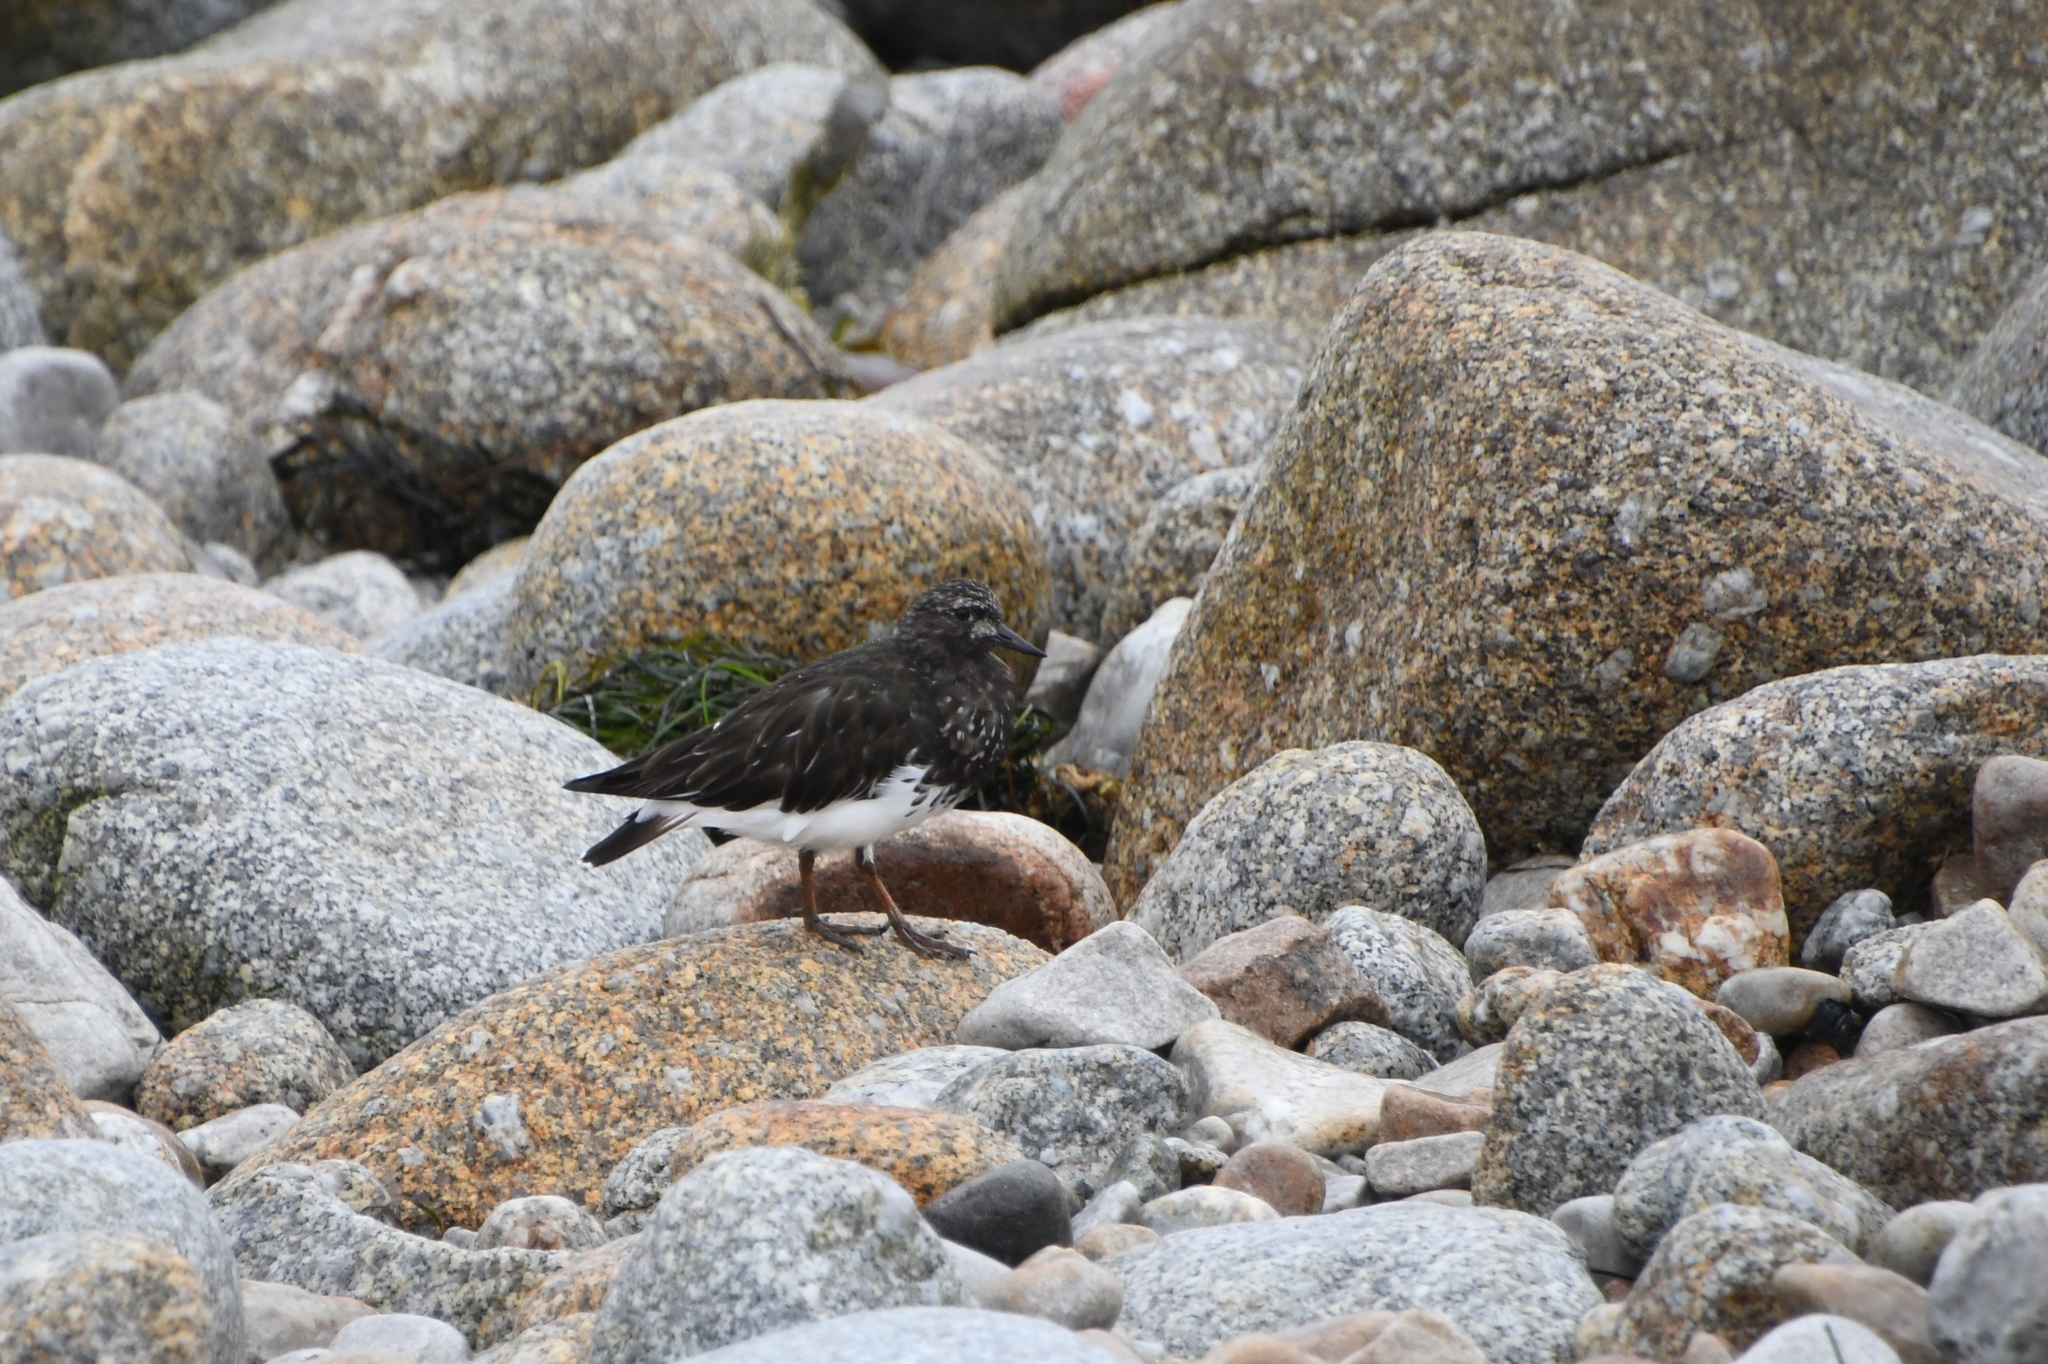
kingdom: Animalia
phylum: Chordata
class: Aves
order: Charadriiformes
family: Scolopacidae
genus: Arenaria
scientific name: Arenaria melanocephala
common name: Black turnstone
